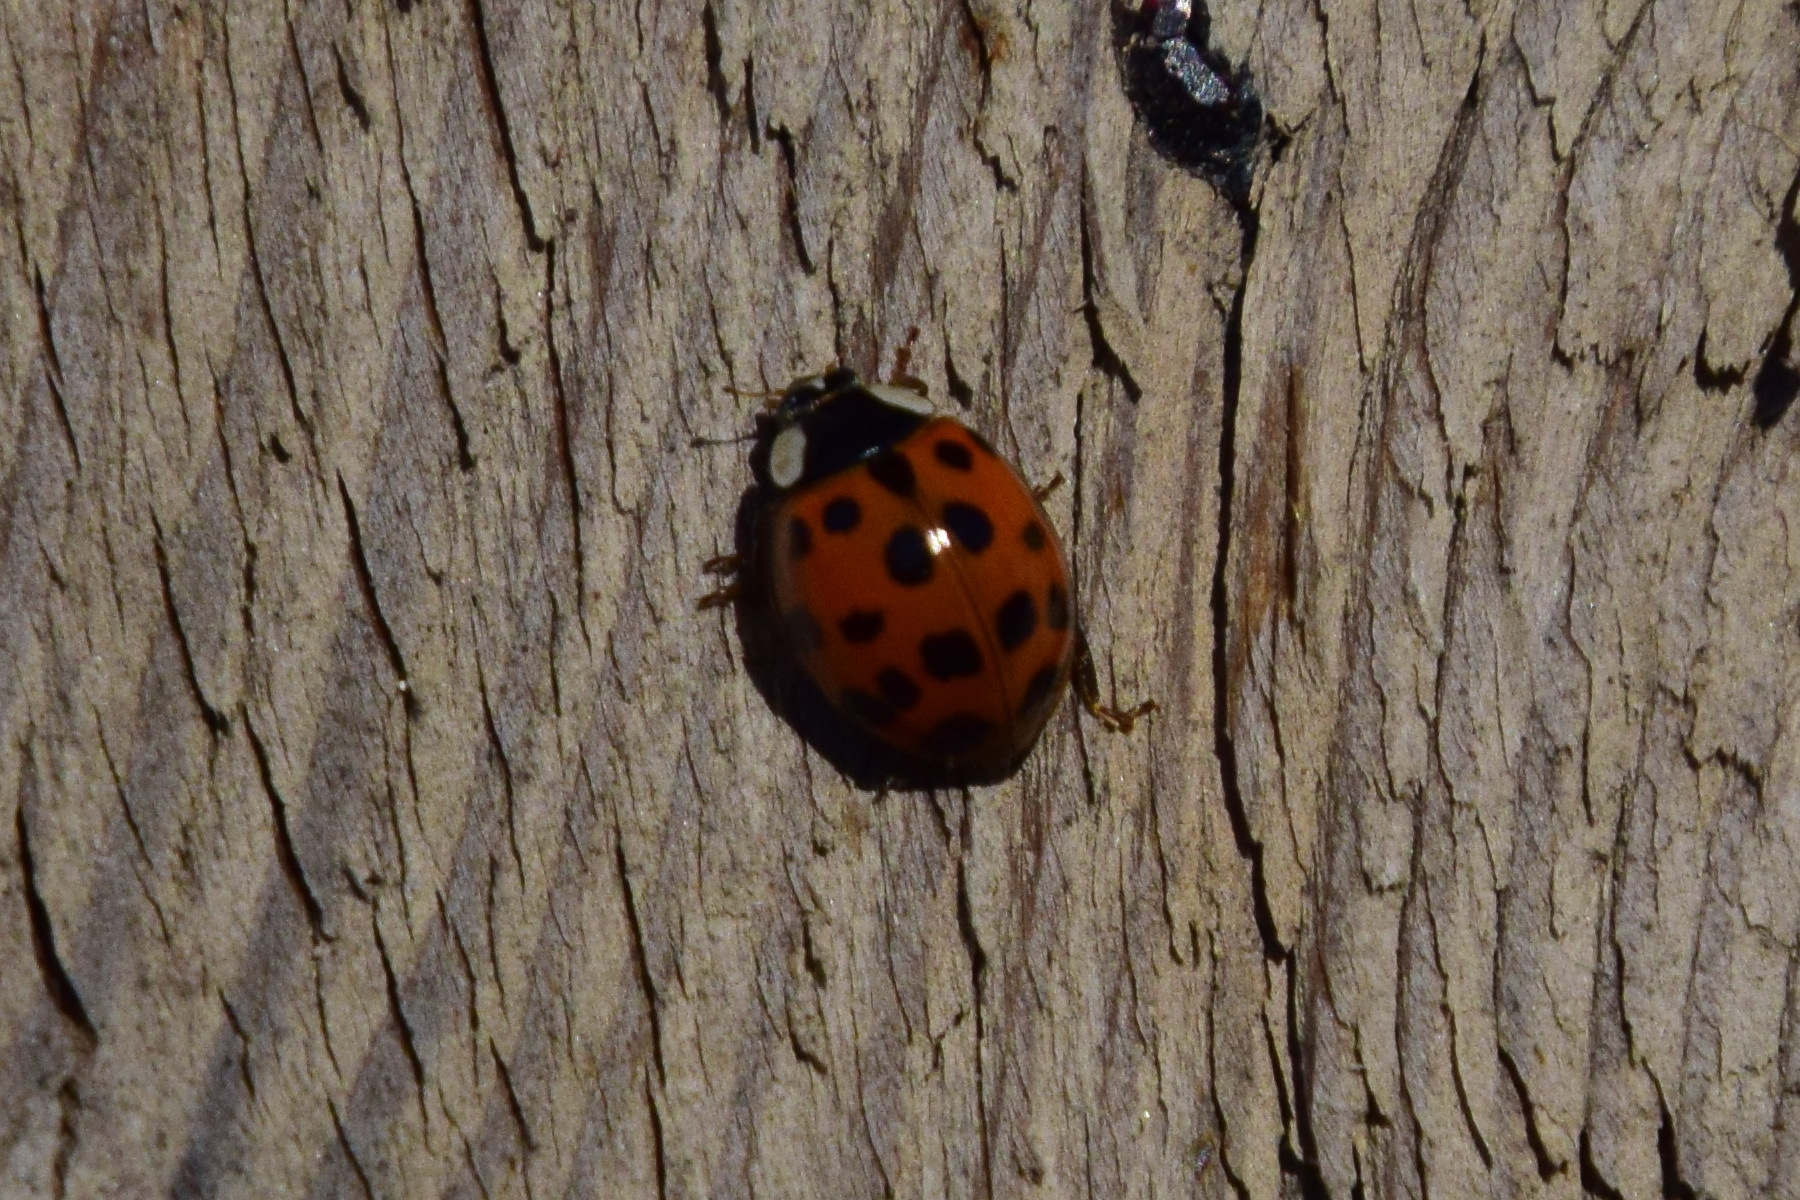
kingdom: Animalia
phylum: Arthropoda
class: Insecta
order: Coleoptera
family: Coccinellidae
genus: Harmonia
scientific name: Harmonia axyridis
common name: Harlequin ladybird
